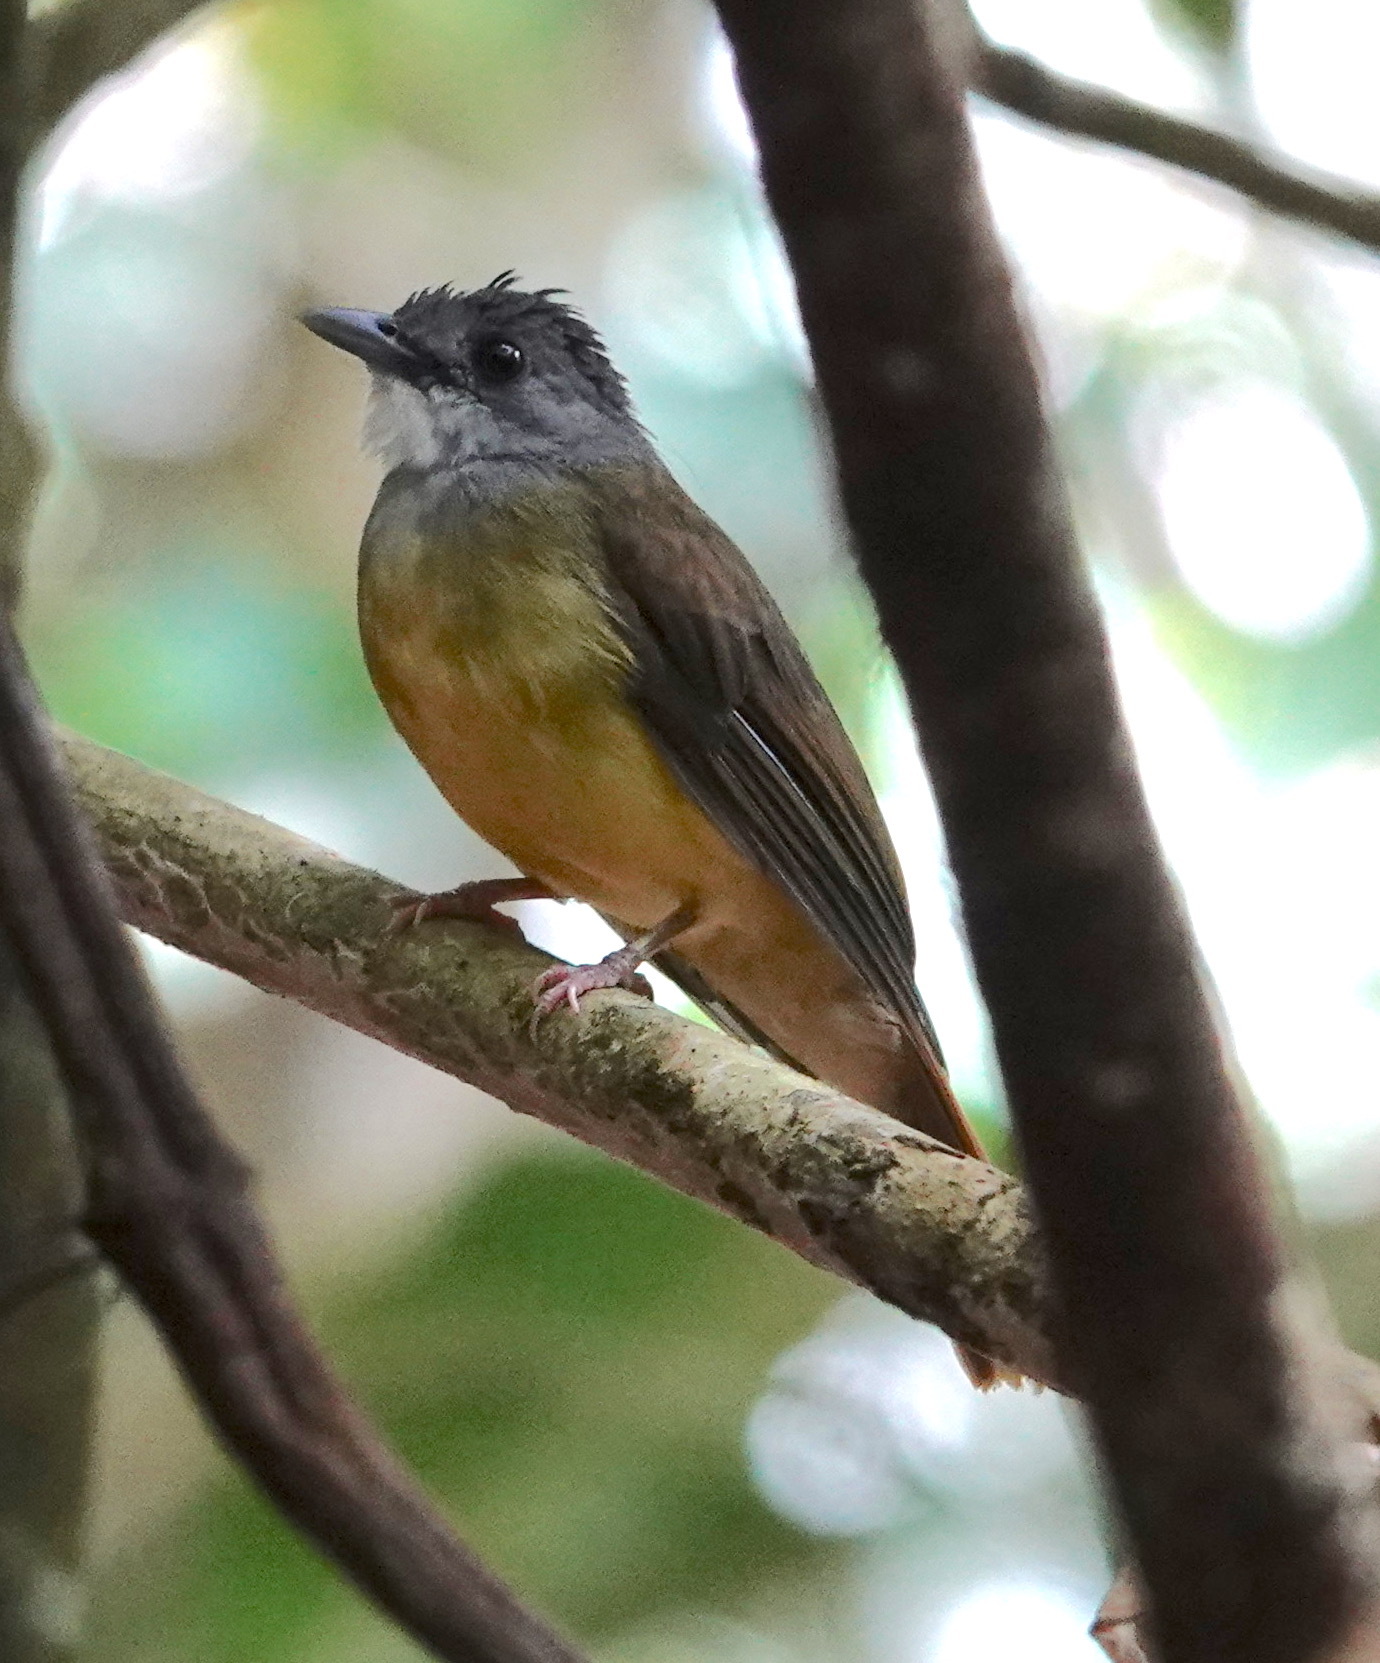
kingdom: Animalia
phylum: Chordata
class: Aves
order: Passeriformes
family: Pycnonotidae
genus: Alophoixus
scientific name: Alophoixus phaeocephalus
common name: Yellow-bellied bulbul
